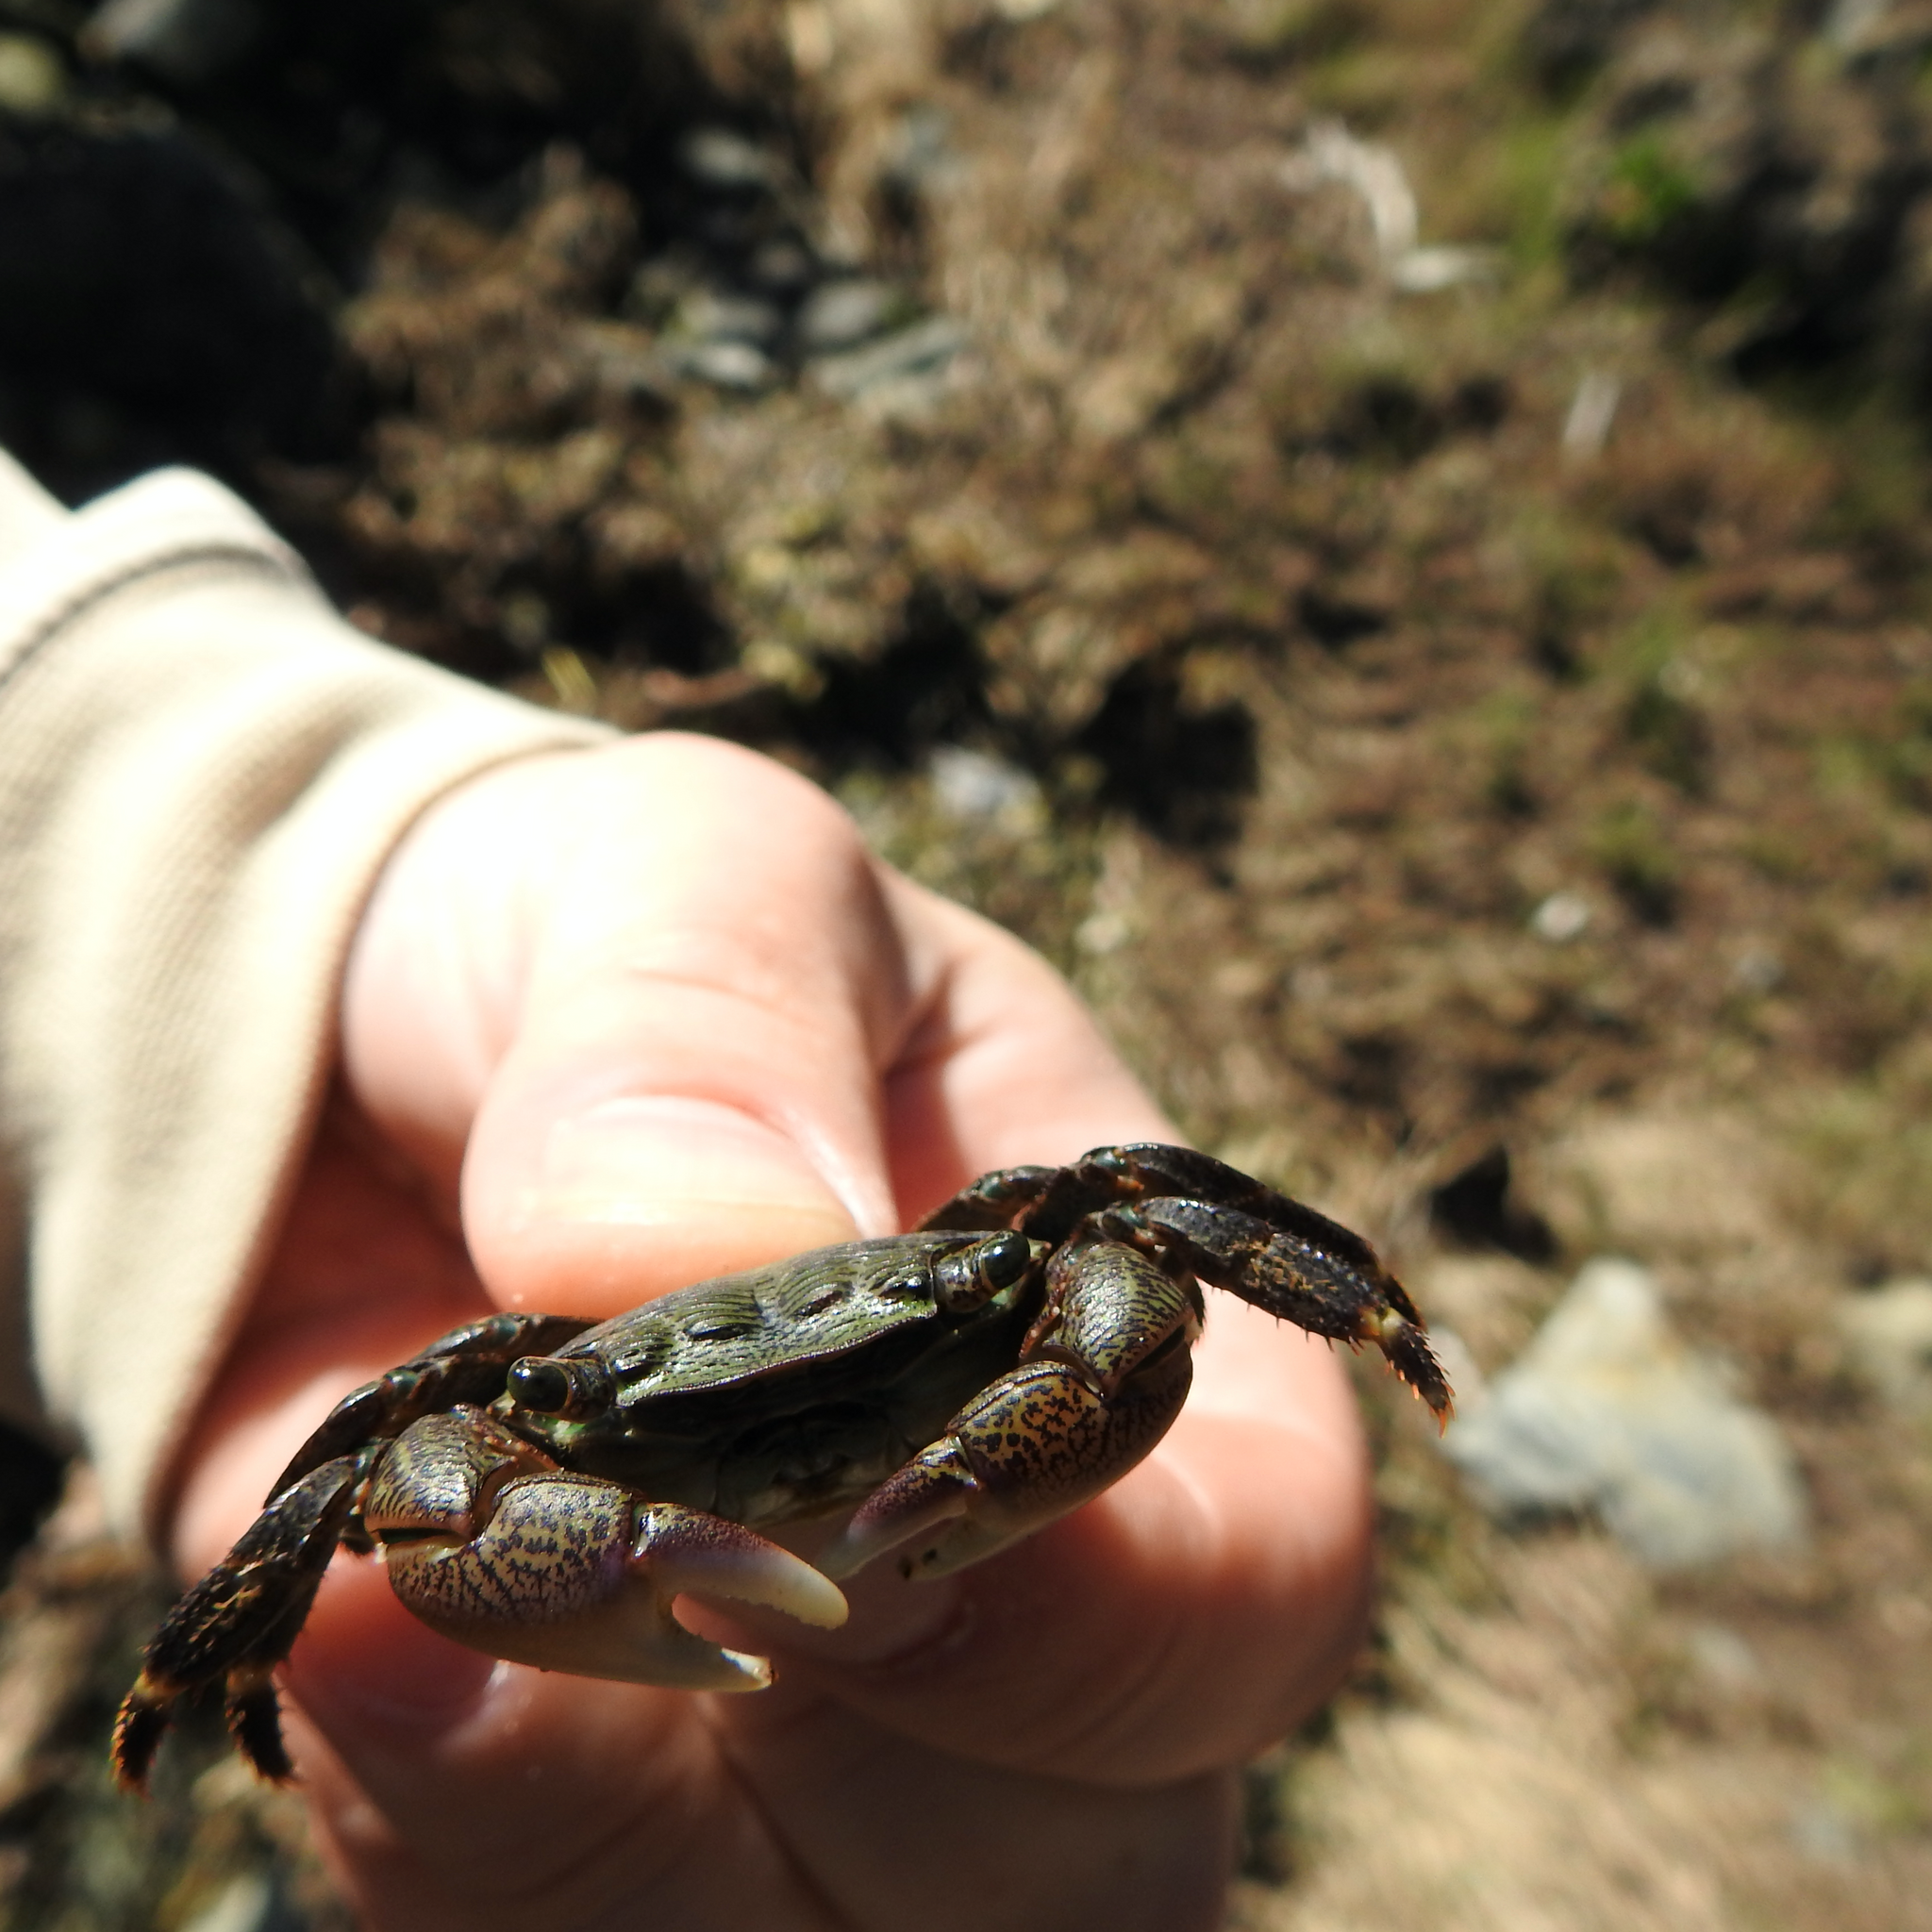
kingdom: Animalia
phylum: Arthropoda
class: Malacostraca
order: Decapoda
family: Grapsidae
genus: Pachygrapsus
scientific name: Pachygrapsus crassipes
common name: Striped shore crab
